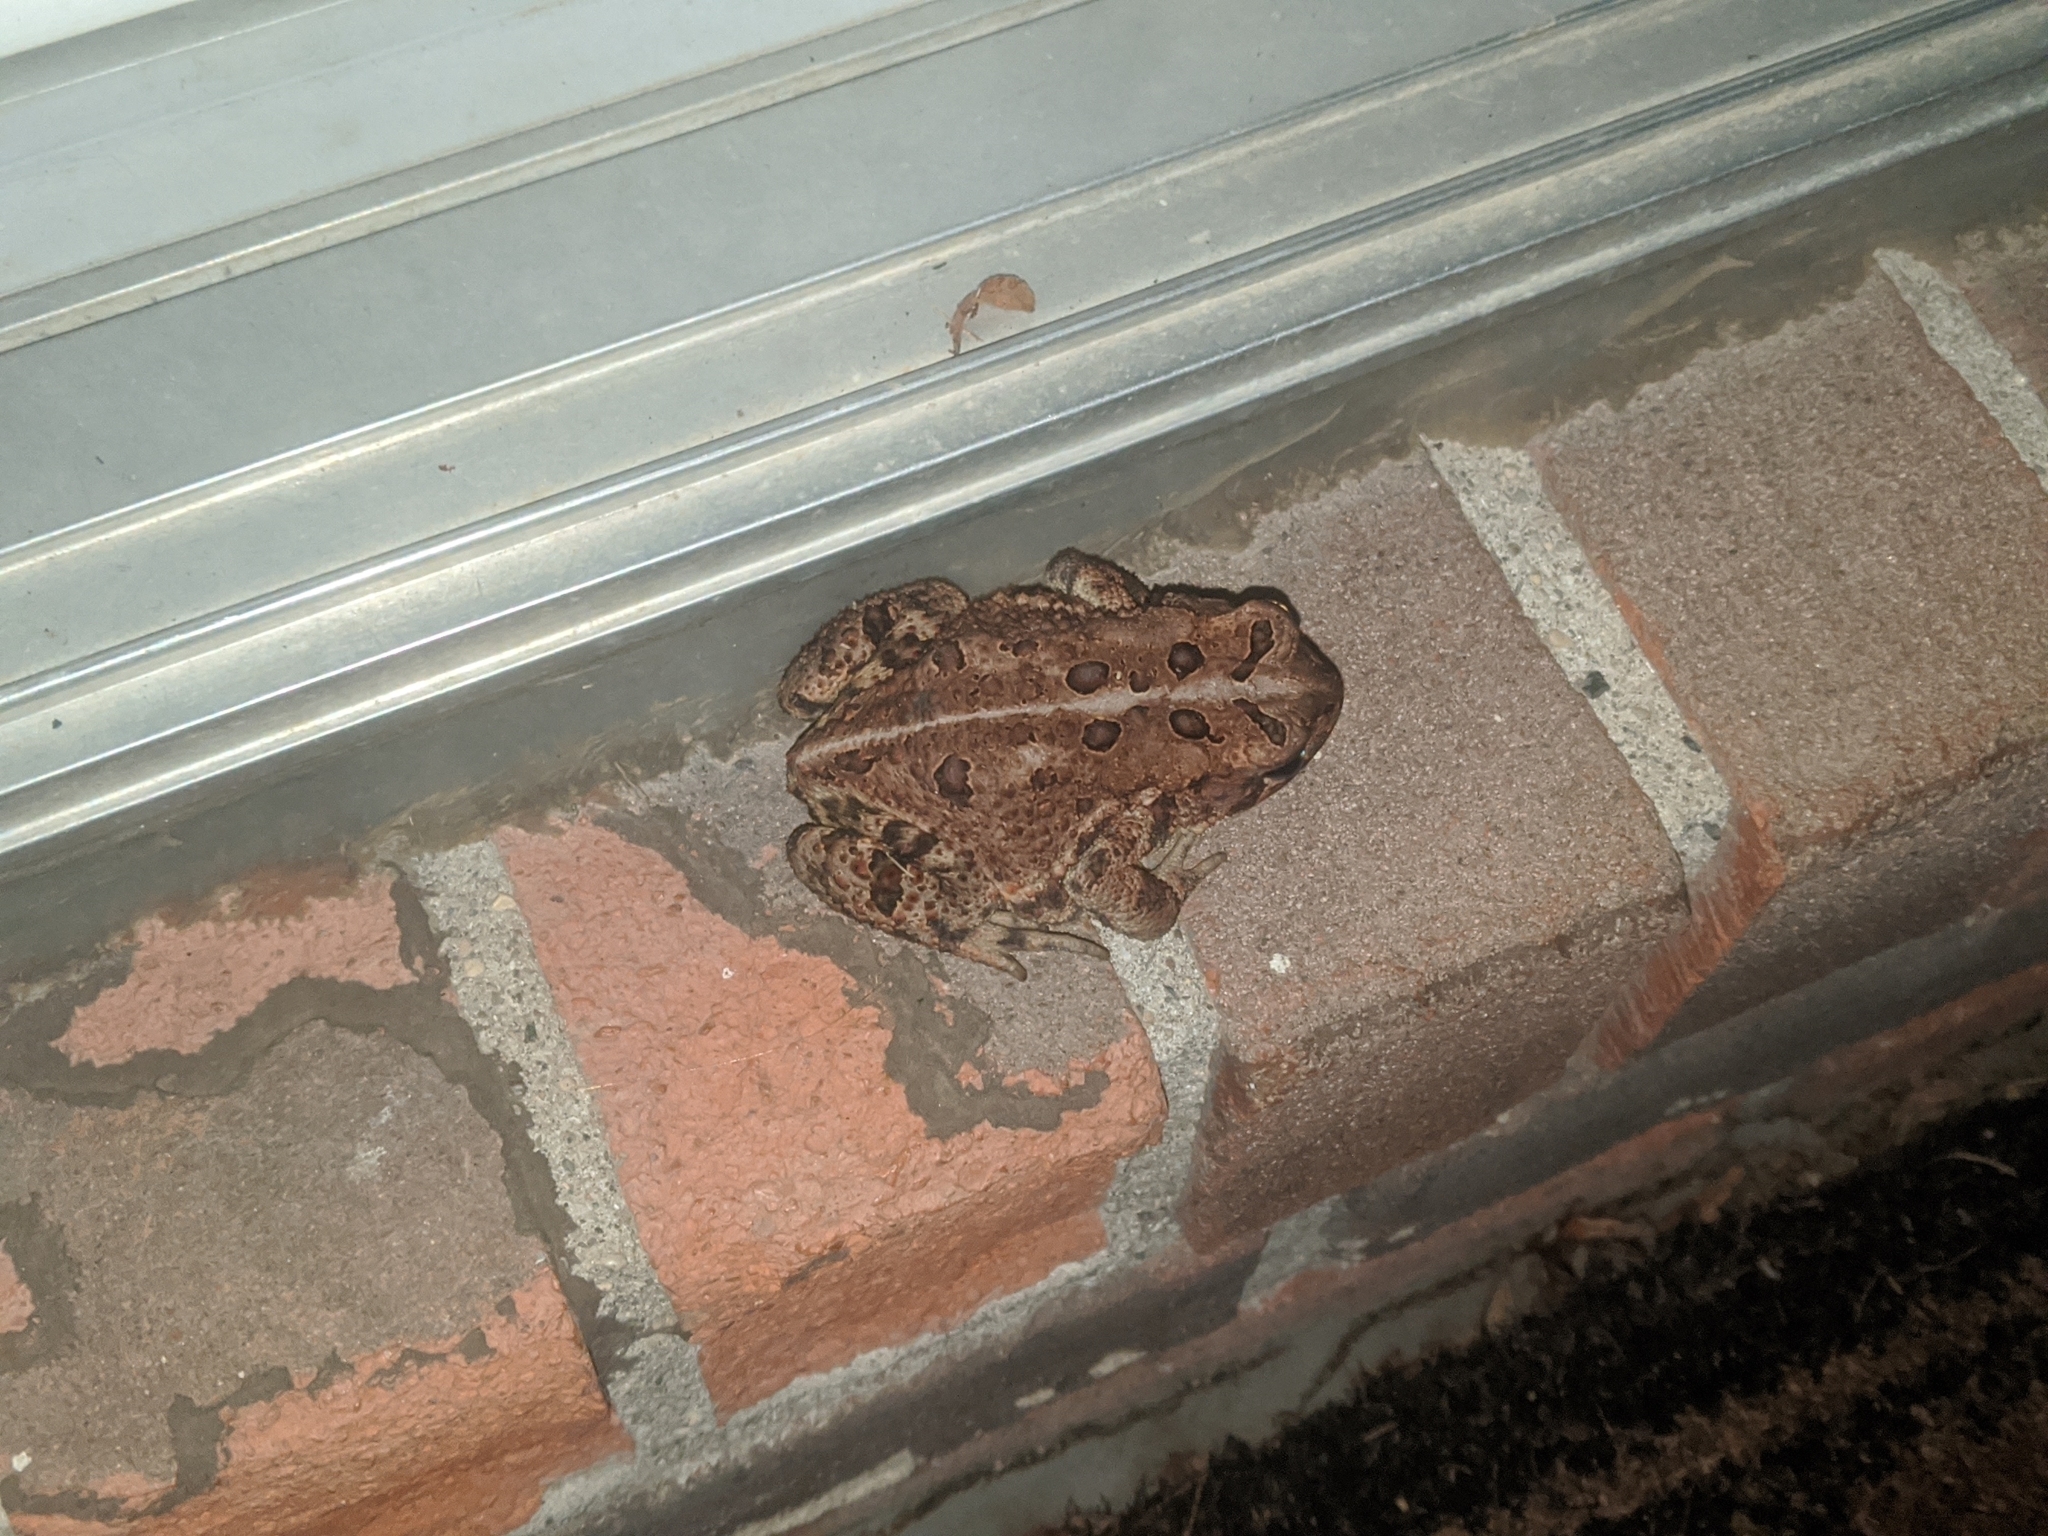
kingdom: Animalia
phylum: Chordata
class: Amphibia
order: Anura
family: Bufonidae
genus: Anaxyrus
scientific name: Anaxyrus americanus
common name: American toad
